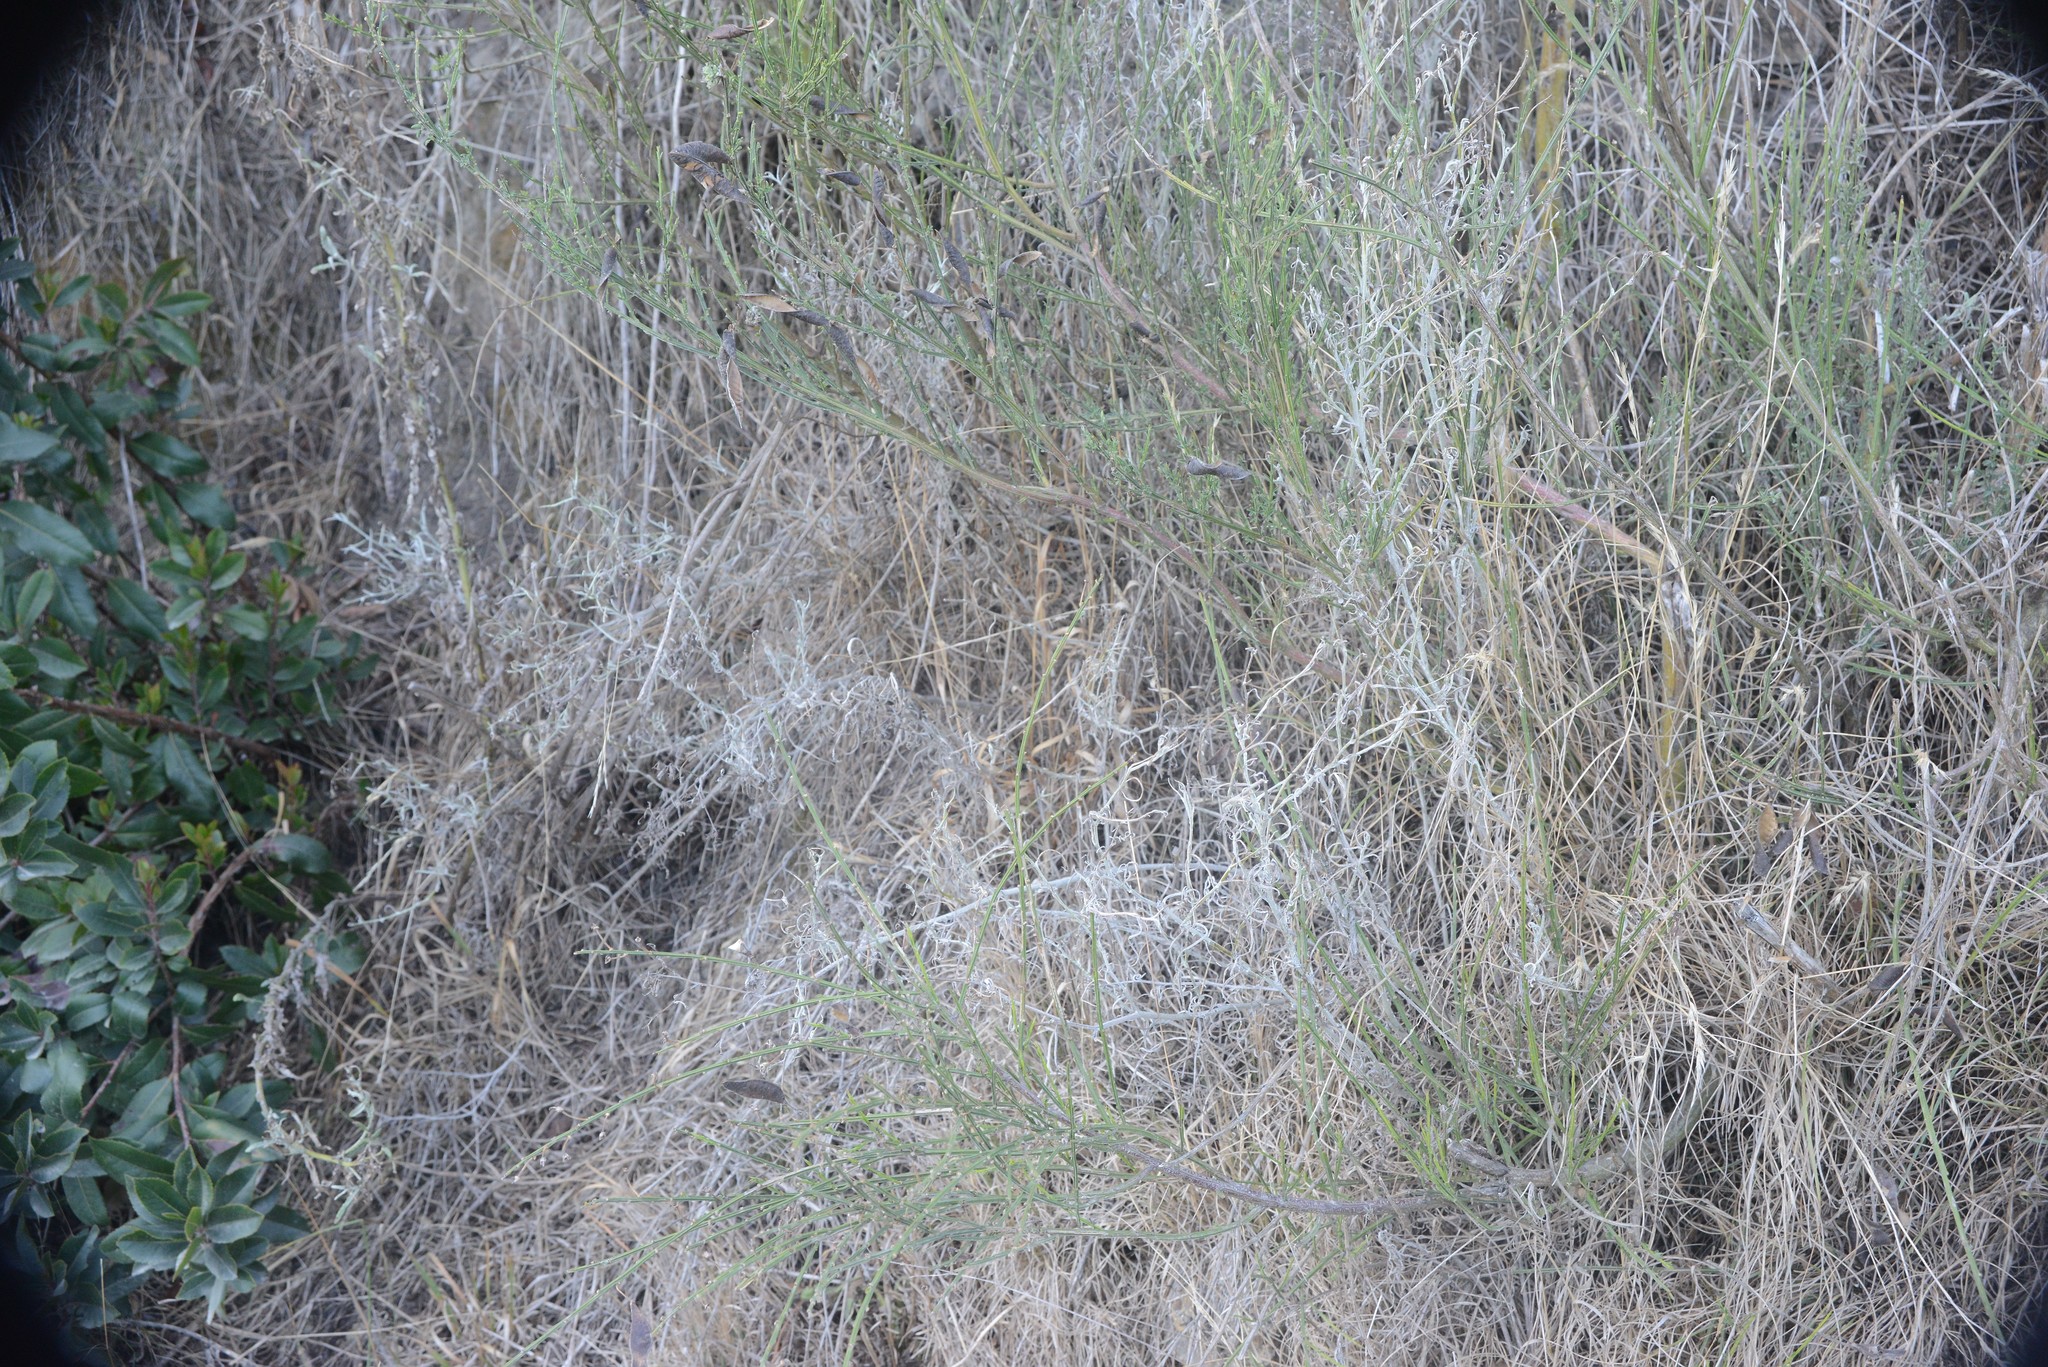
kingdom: Plantae
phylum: Tracheophyta
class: Magnoliopsida
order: Asterales
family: Asteraceae
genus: Senecio
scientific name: Senecio quadridentatus
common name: Cotton fireweed
